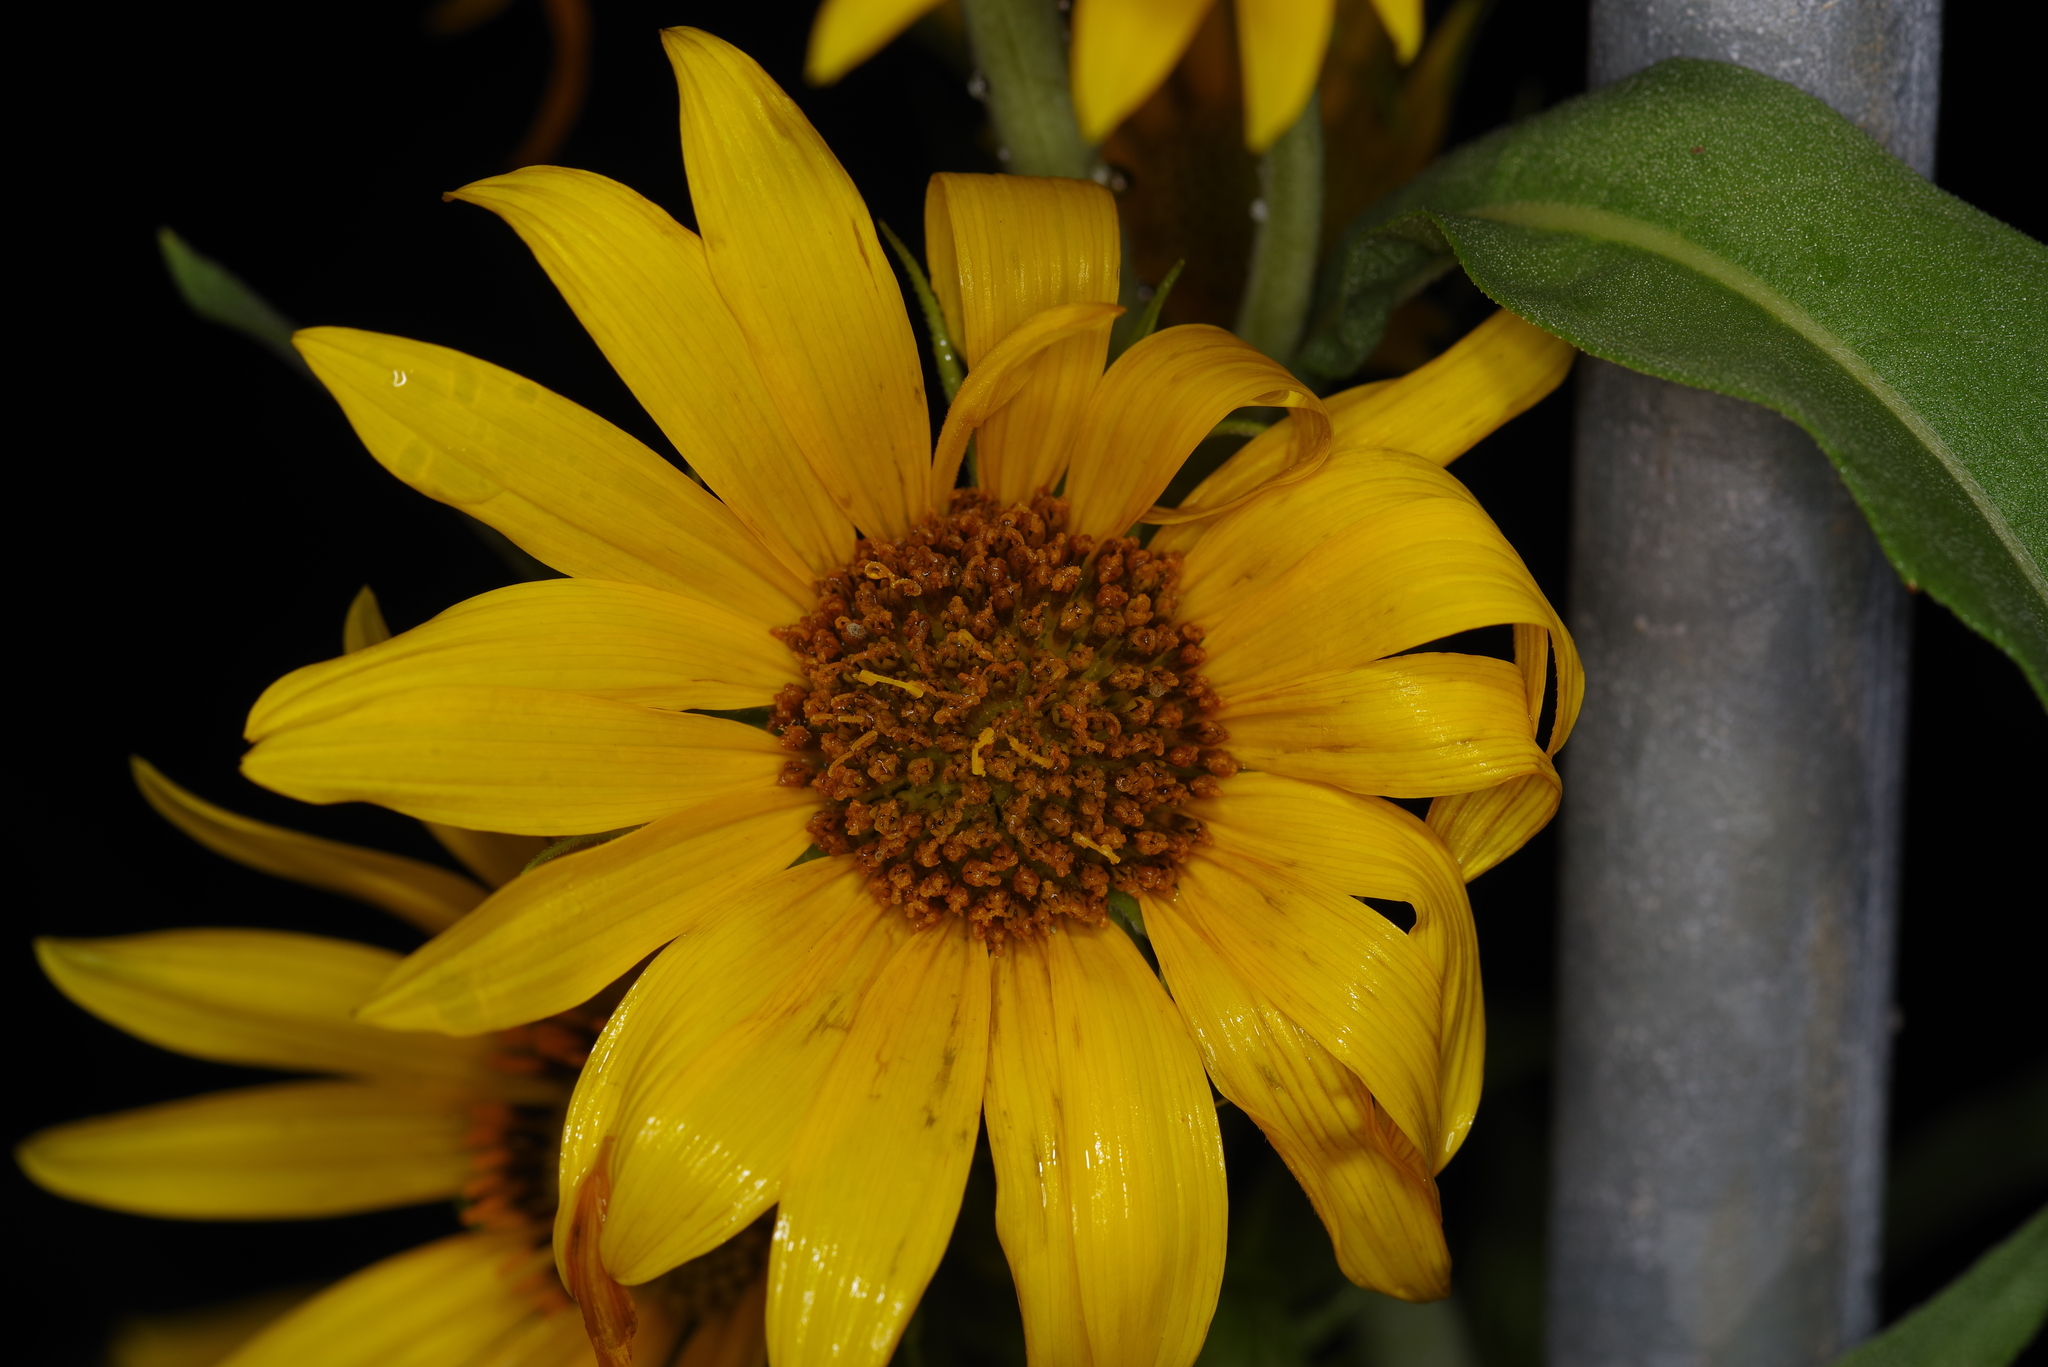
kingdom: Plantae
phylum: Tracheophyta
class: Magnoliopsida
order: Asterales
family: Asteraceae
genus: Helianthus
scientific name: Helianthus maximiliani
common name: Maximilian's sunflower
